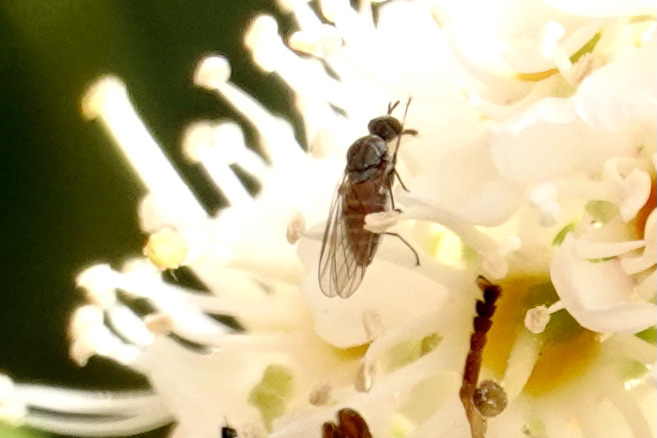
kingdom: Animalia
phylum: Arthropoda
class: Insecta
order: Diptera
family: Bombyliidae
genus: Apolysis
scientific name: Apolysis sigma
